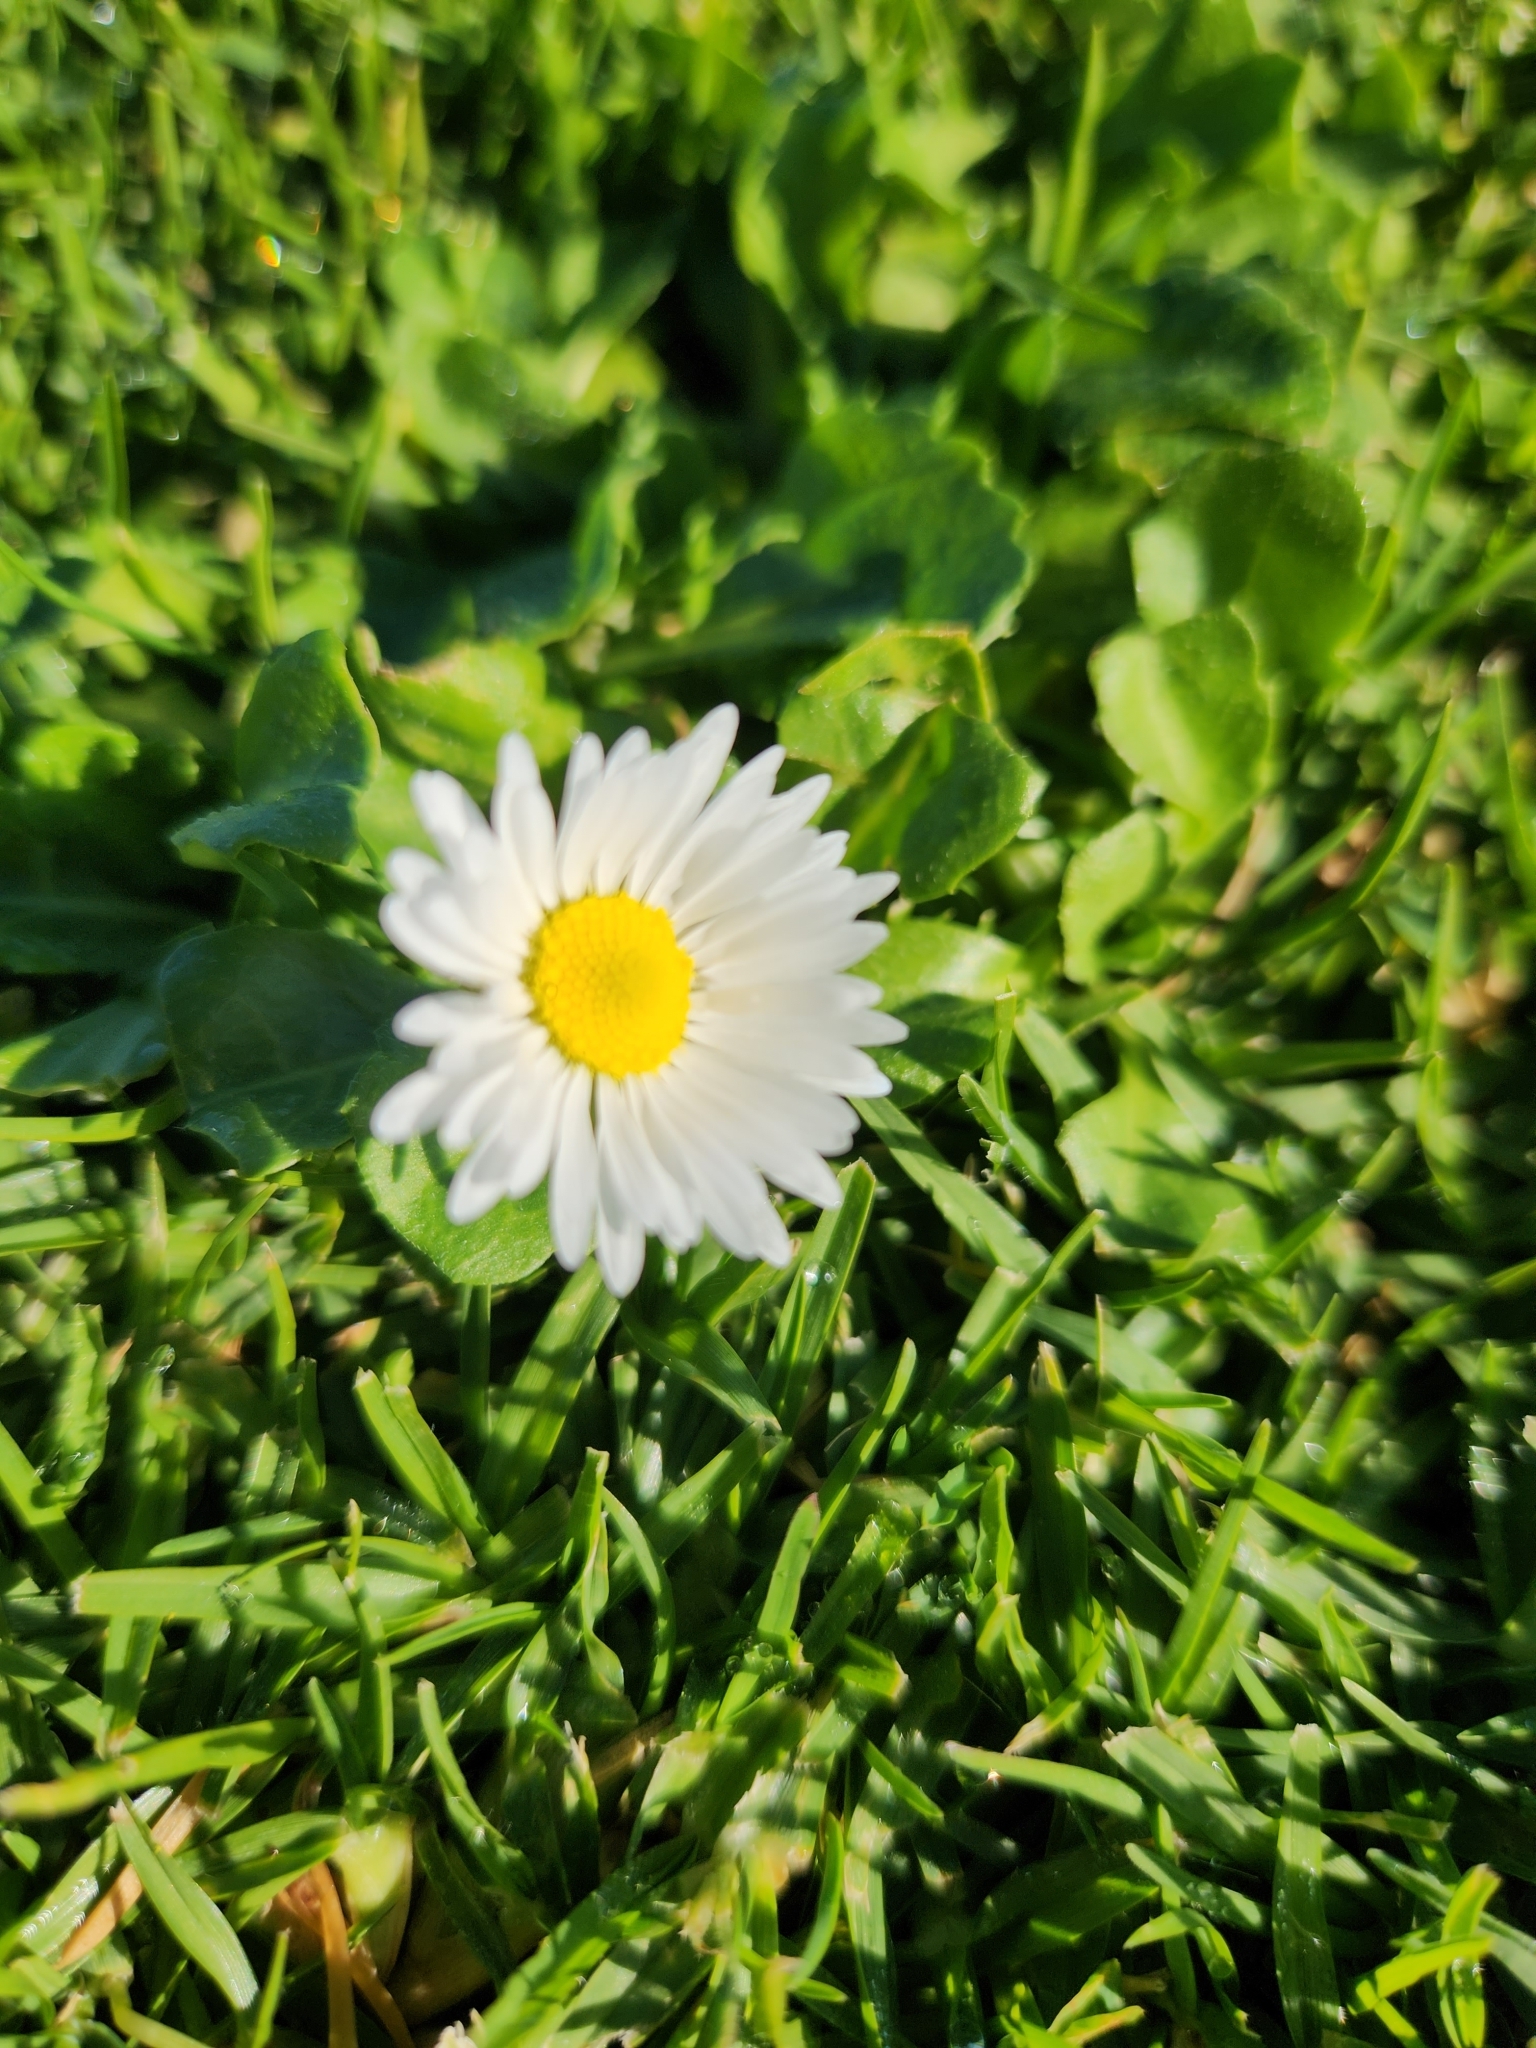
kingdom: Plantae
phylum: Tracheophyta
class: Magnoliopsida
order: Asterales
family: Asteraceae
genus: Bellis
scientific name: Bellis perennis
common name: Lawndaisy
